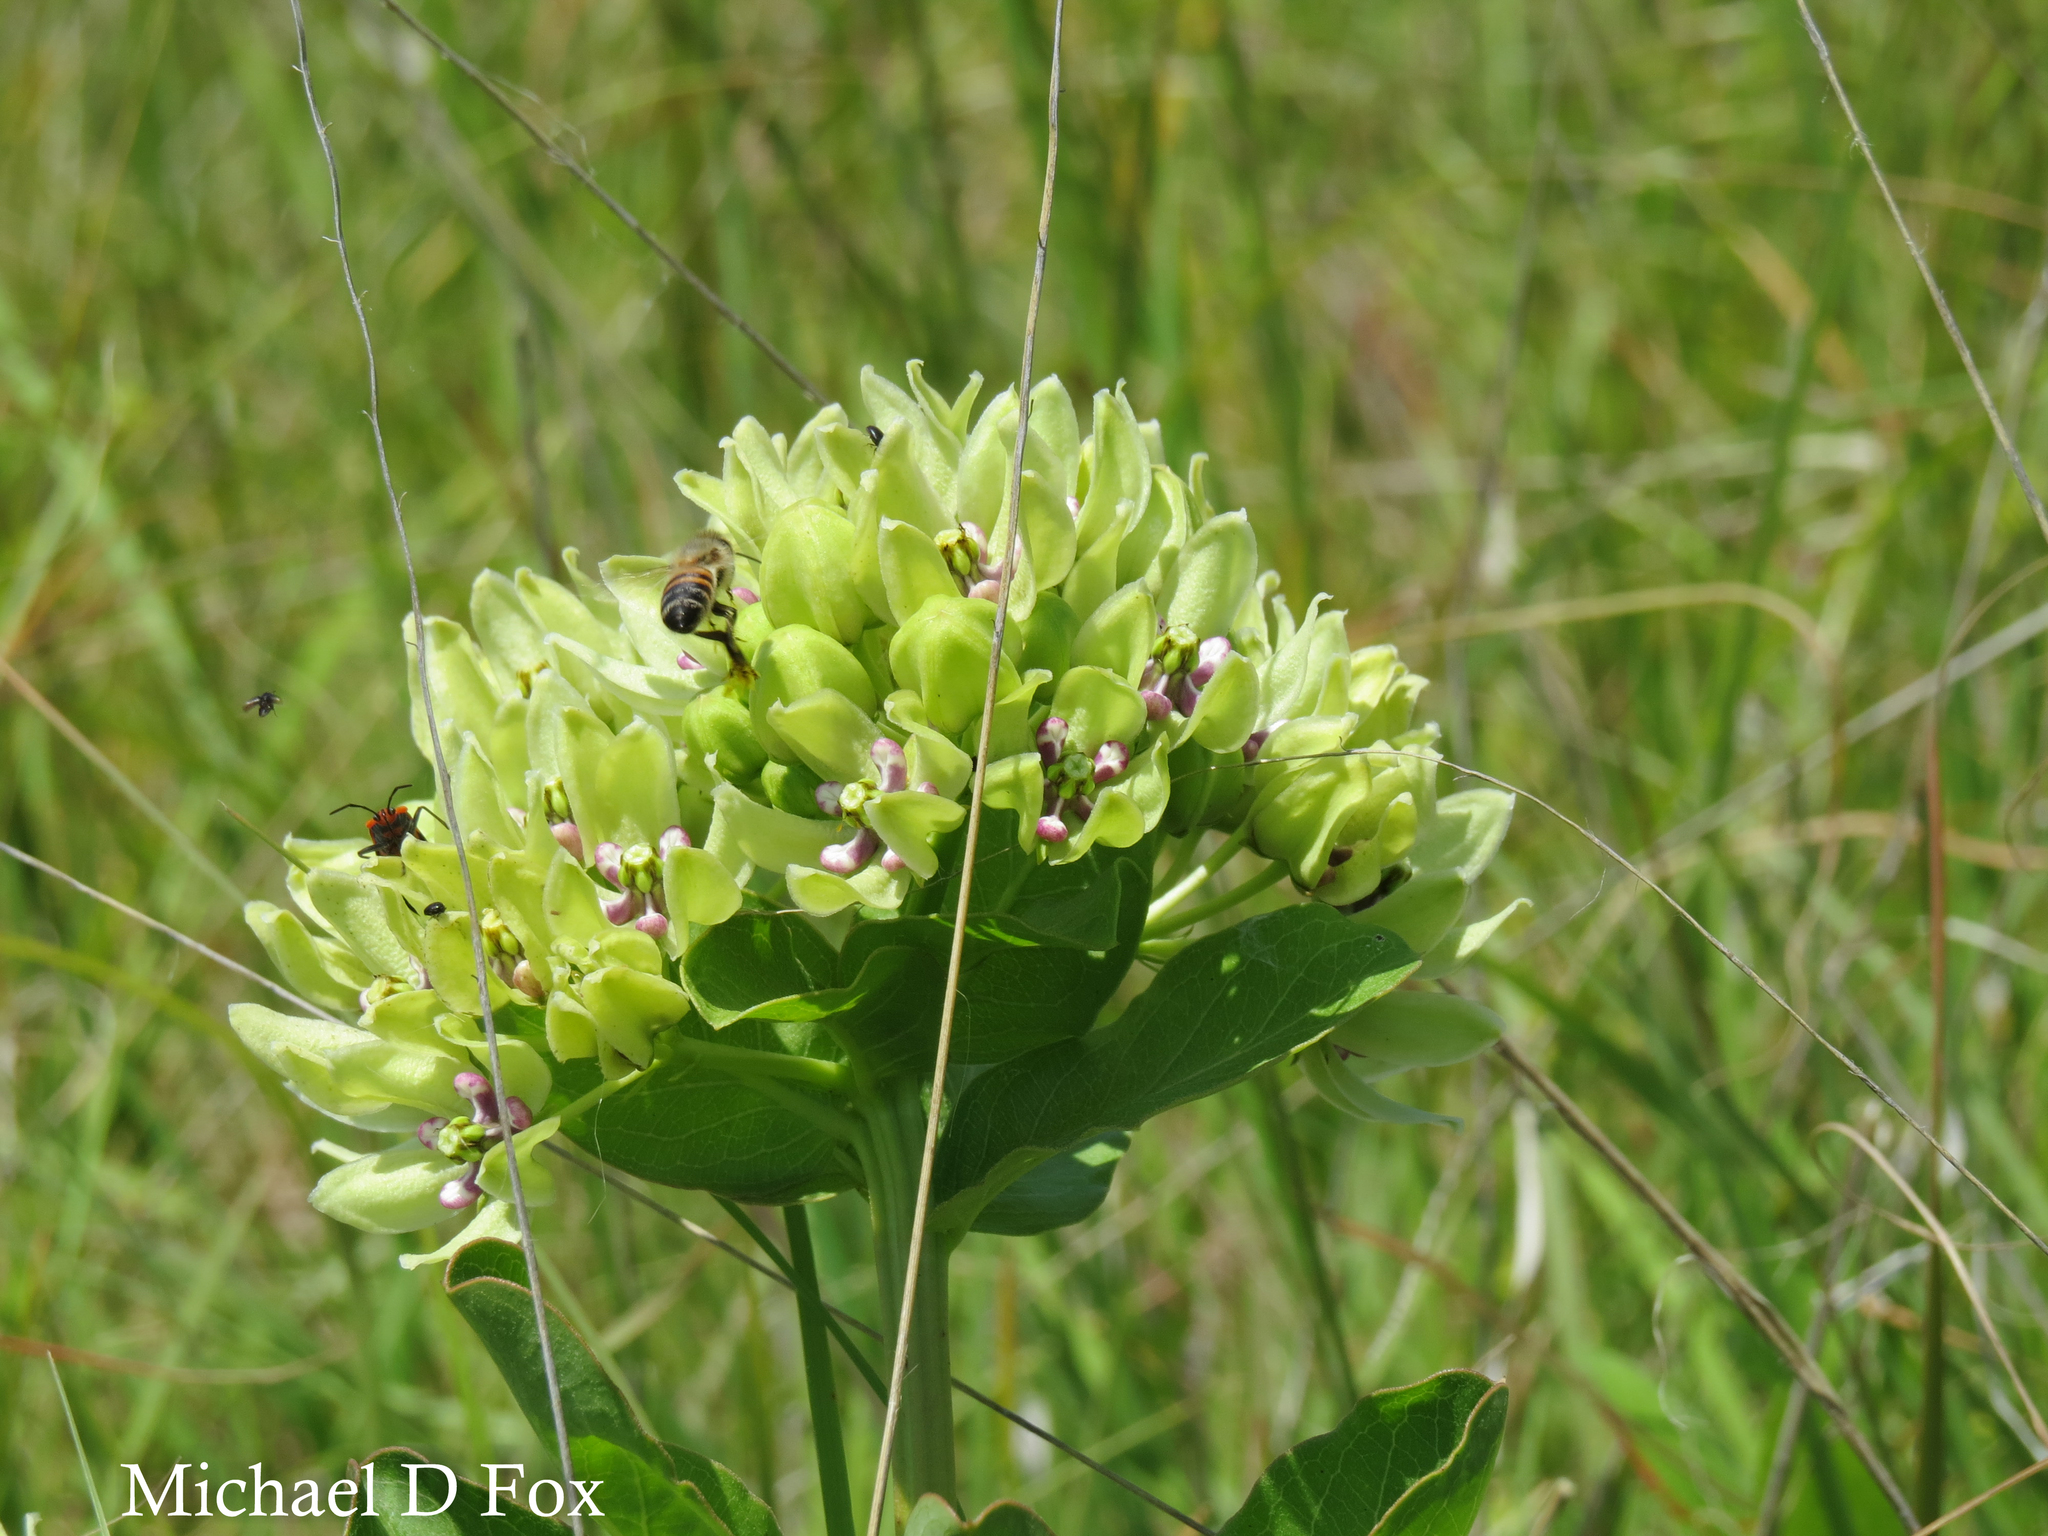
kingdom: Plantae
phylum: Tracheophyta
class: Magnoliopsida
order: Gentianales
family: Apocynaceae
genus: Asclepias
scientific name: Asclepias viridis
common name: Antelope-horns
